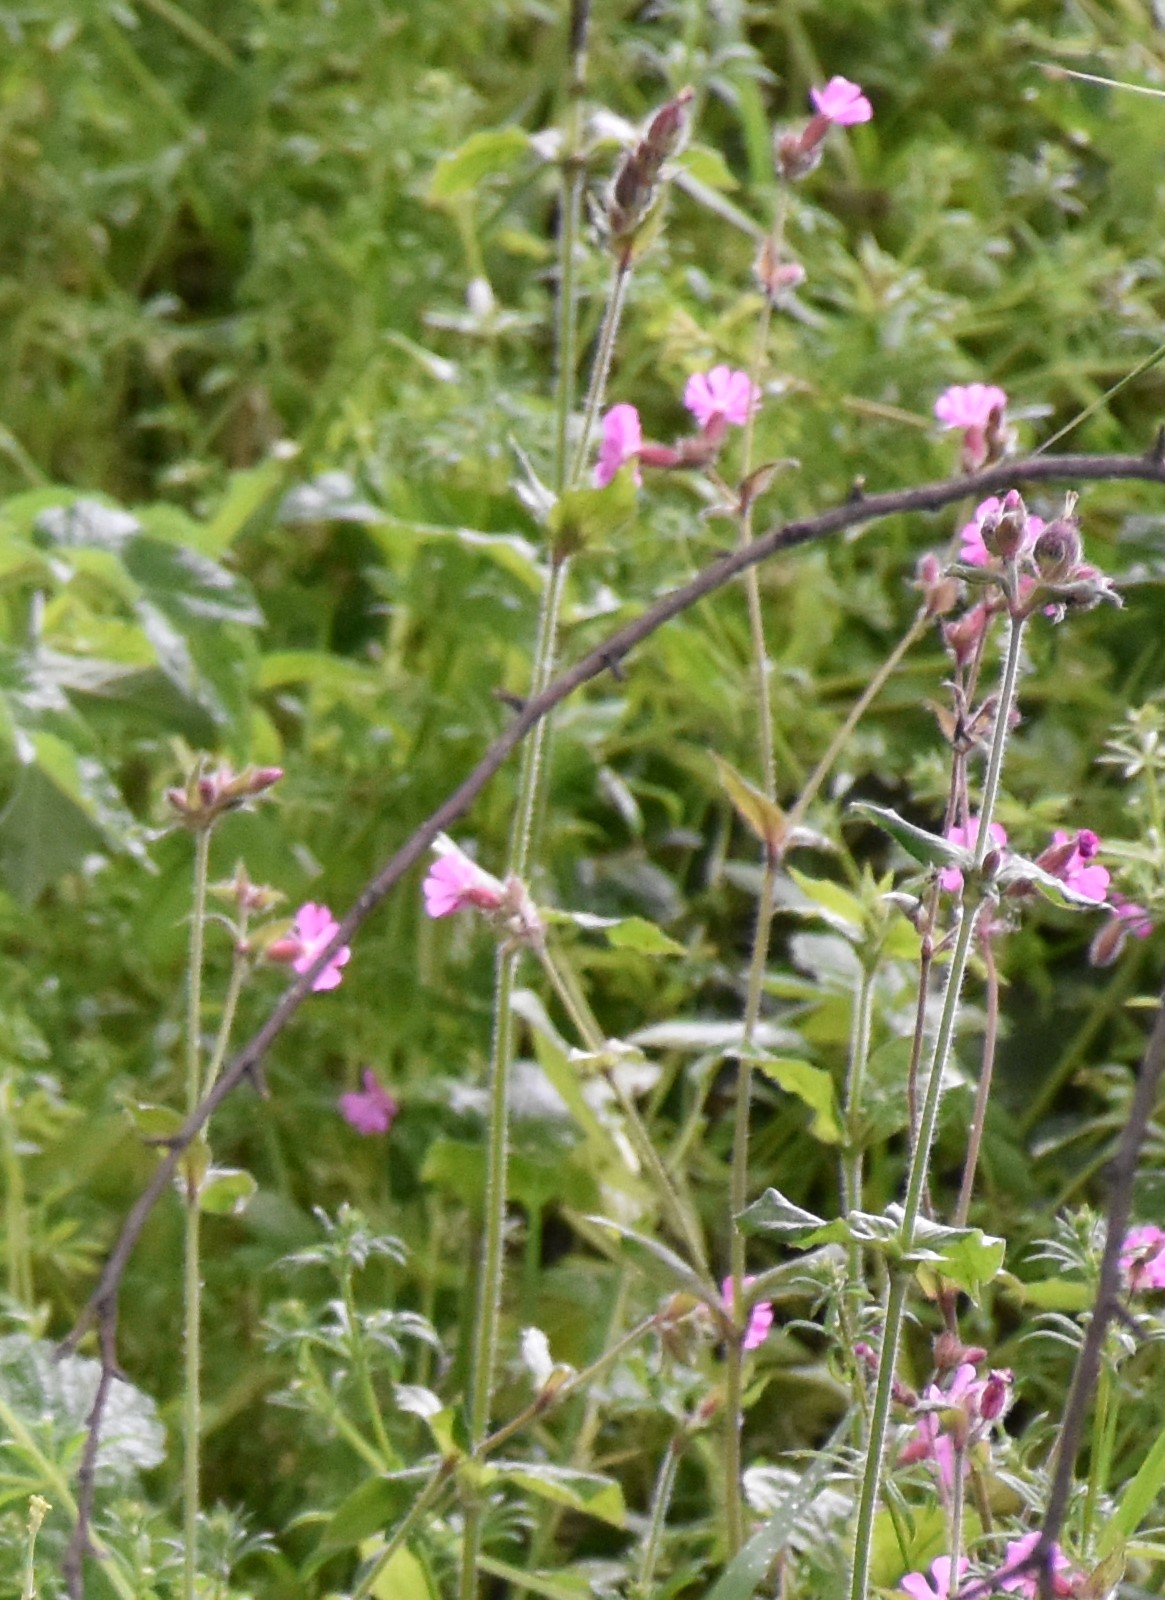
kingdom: Plantae
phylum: Tracheophyta
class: Magnoliopsida
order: Caryophyllales
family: Caryophyllaceae
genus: Silene
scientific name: Silene dioica
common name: Red campion
